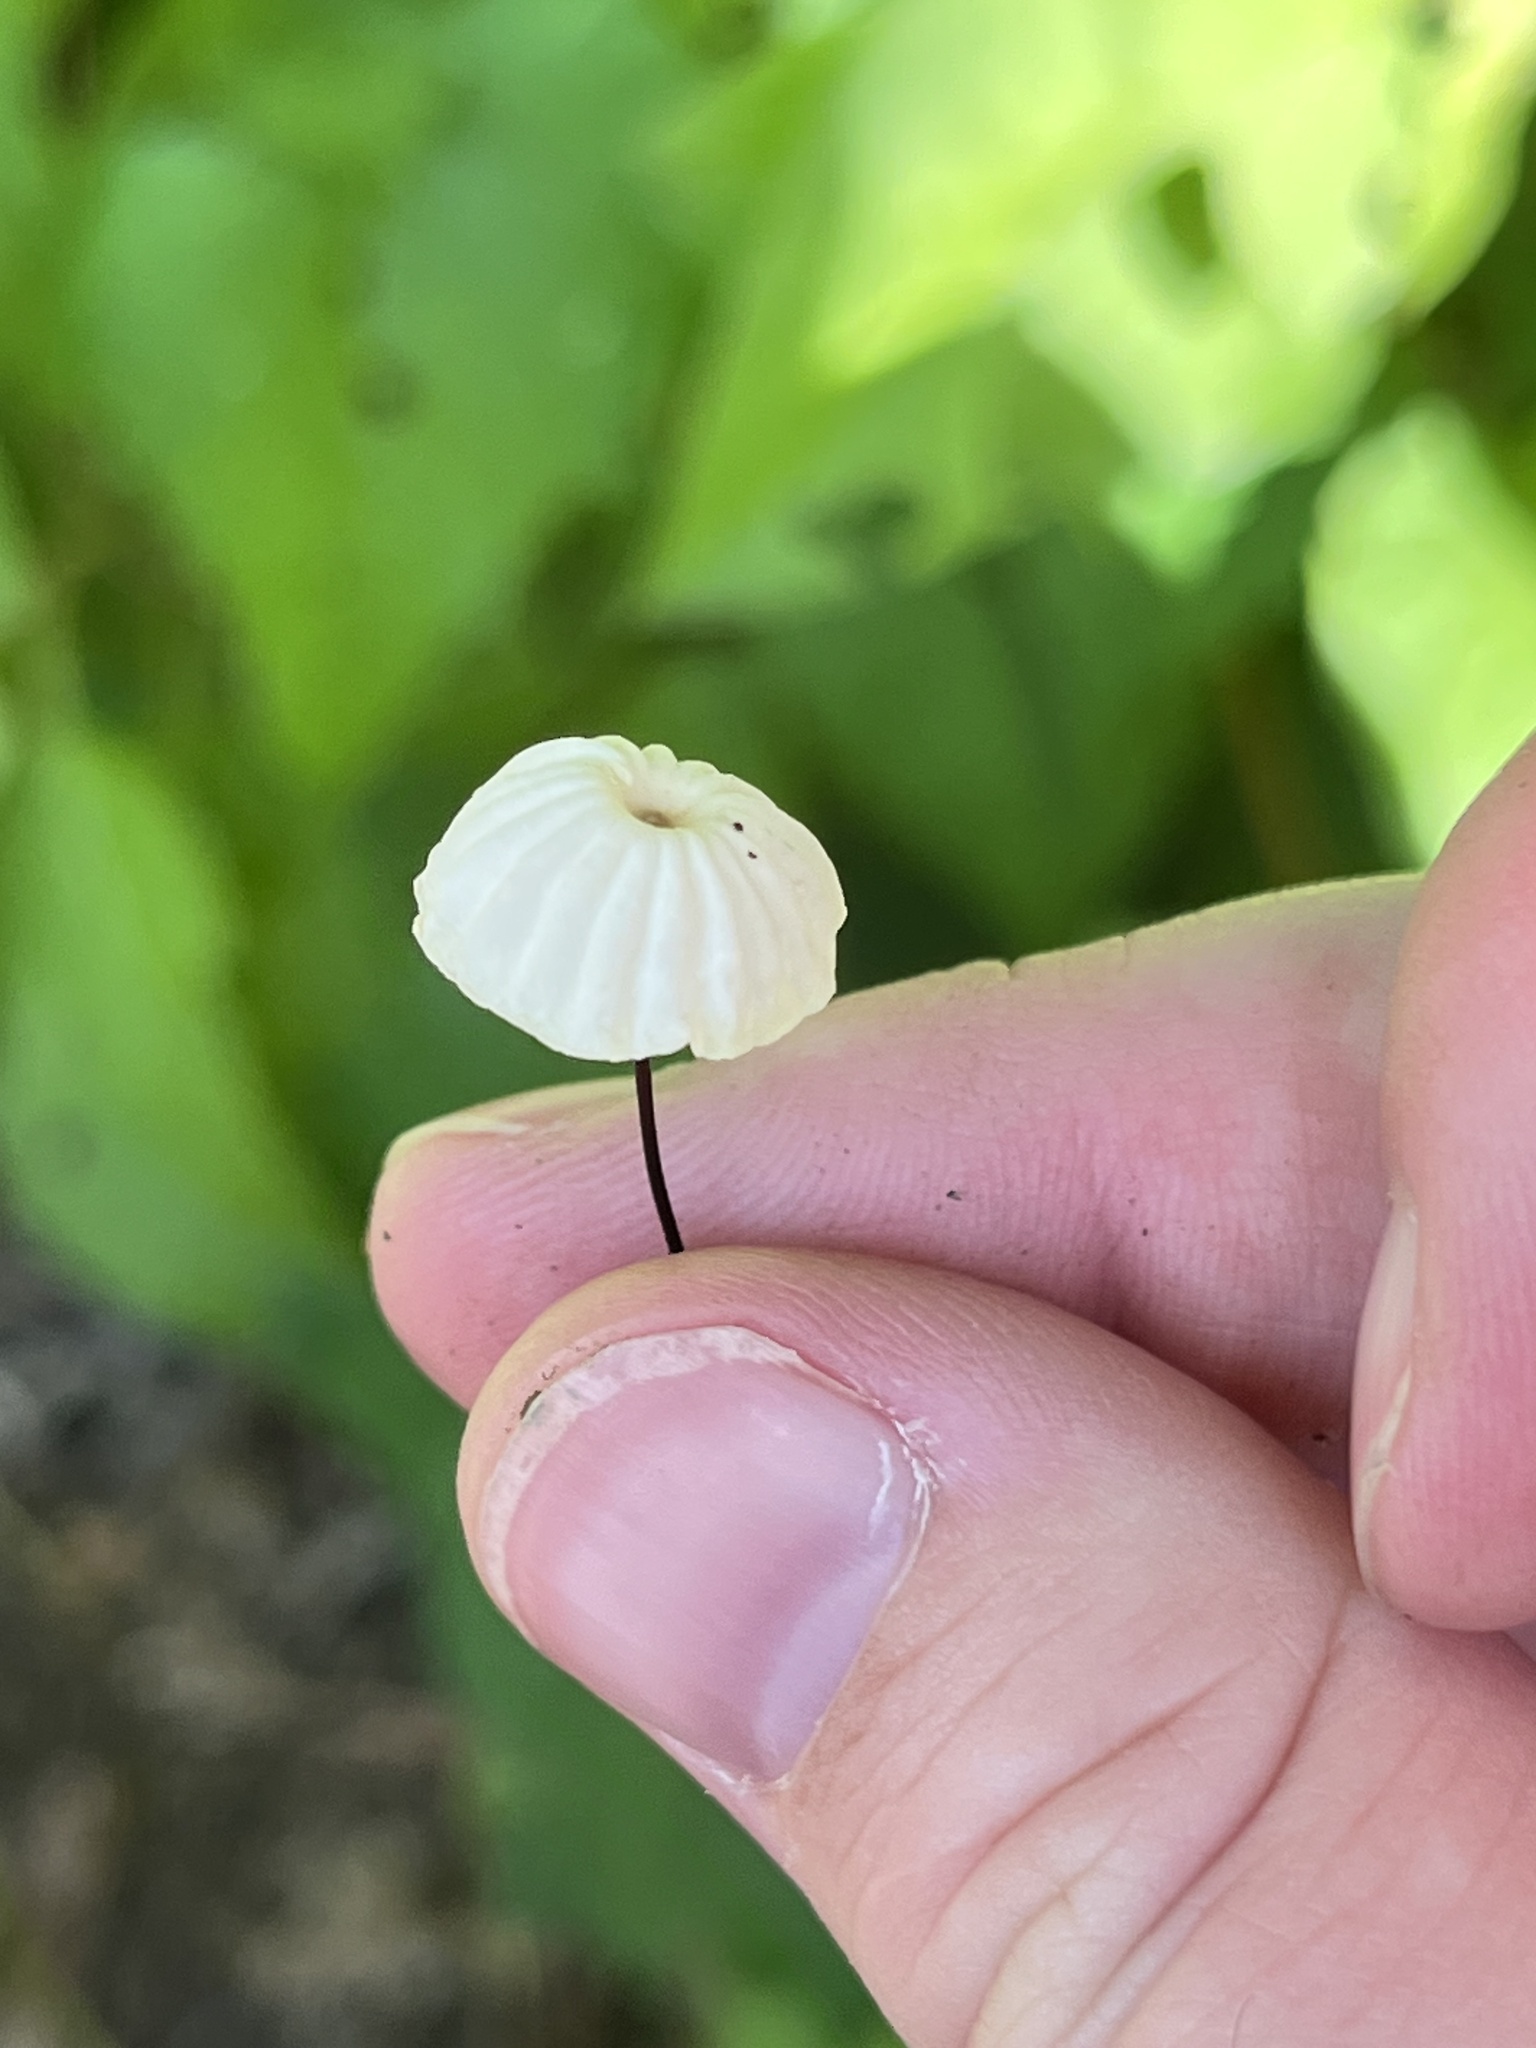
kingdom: Fungi
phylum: Basidiomycota
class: Agaricomycetes
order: Agaricales
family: Marasmiaceae
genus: Marasmius
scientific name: Marasmius rotula
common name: Collared parachute
